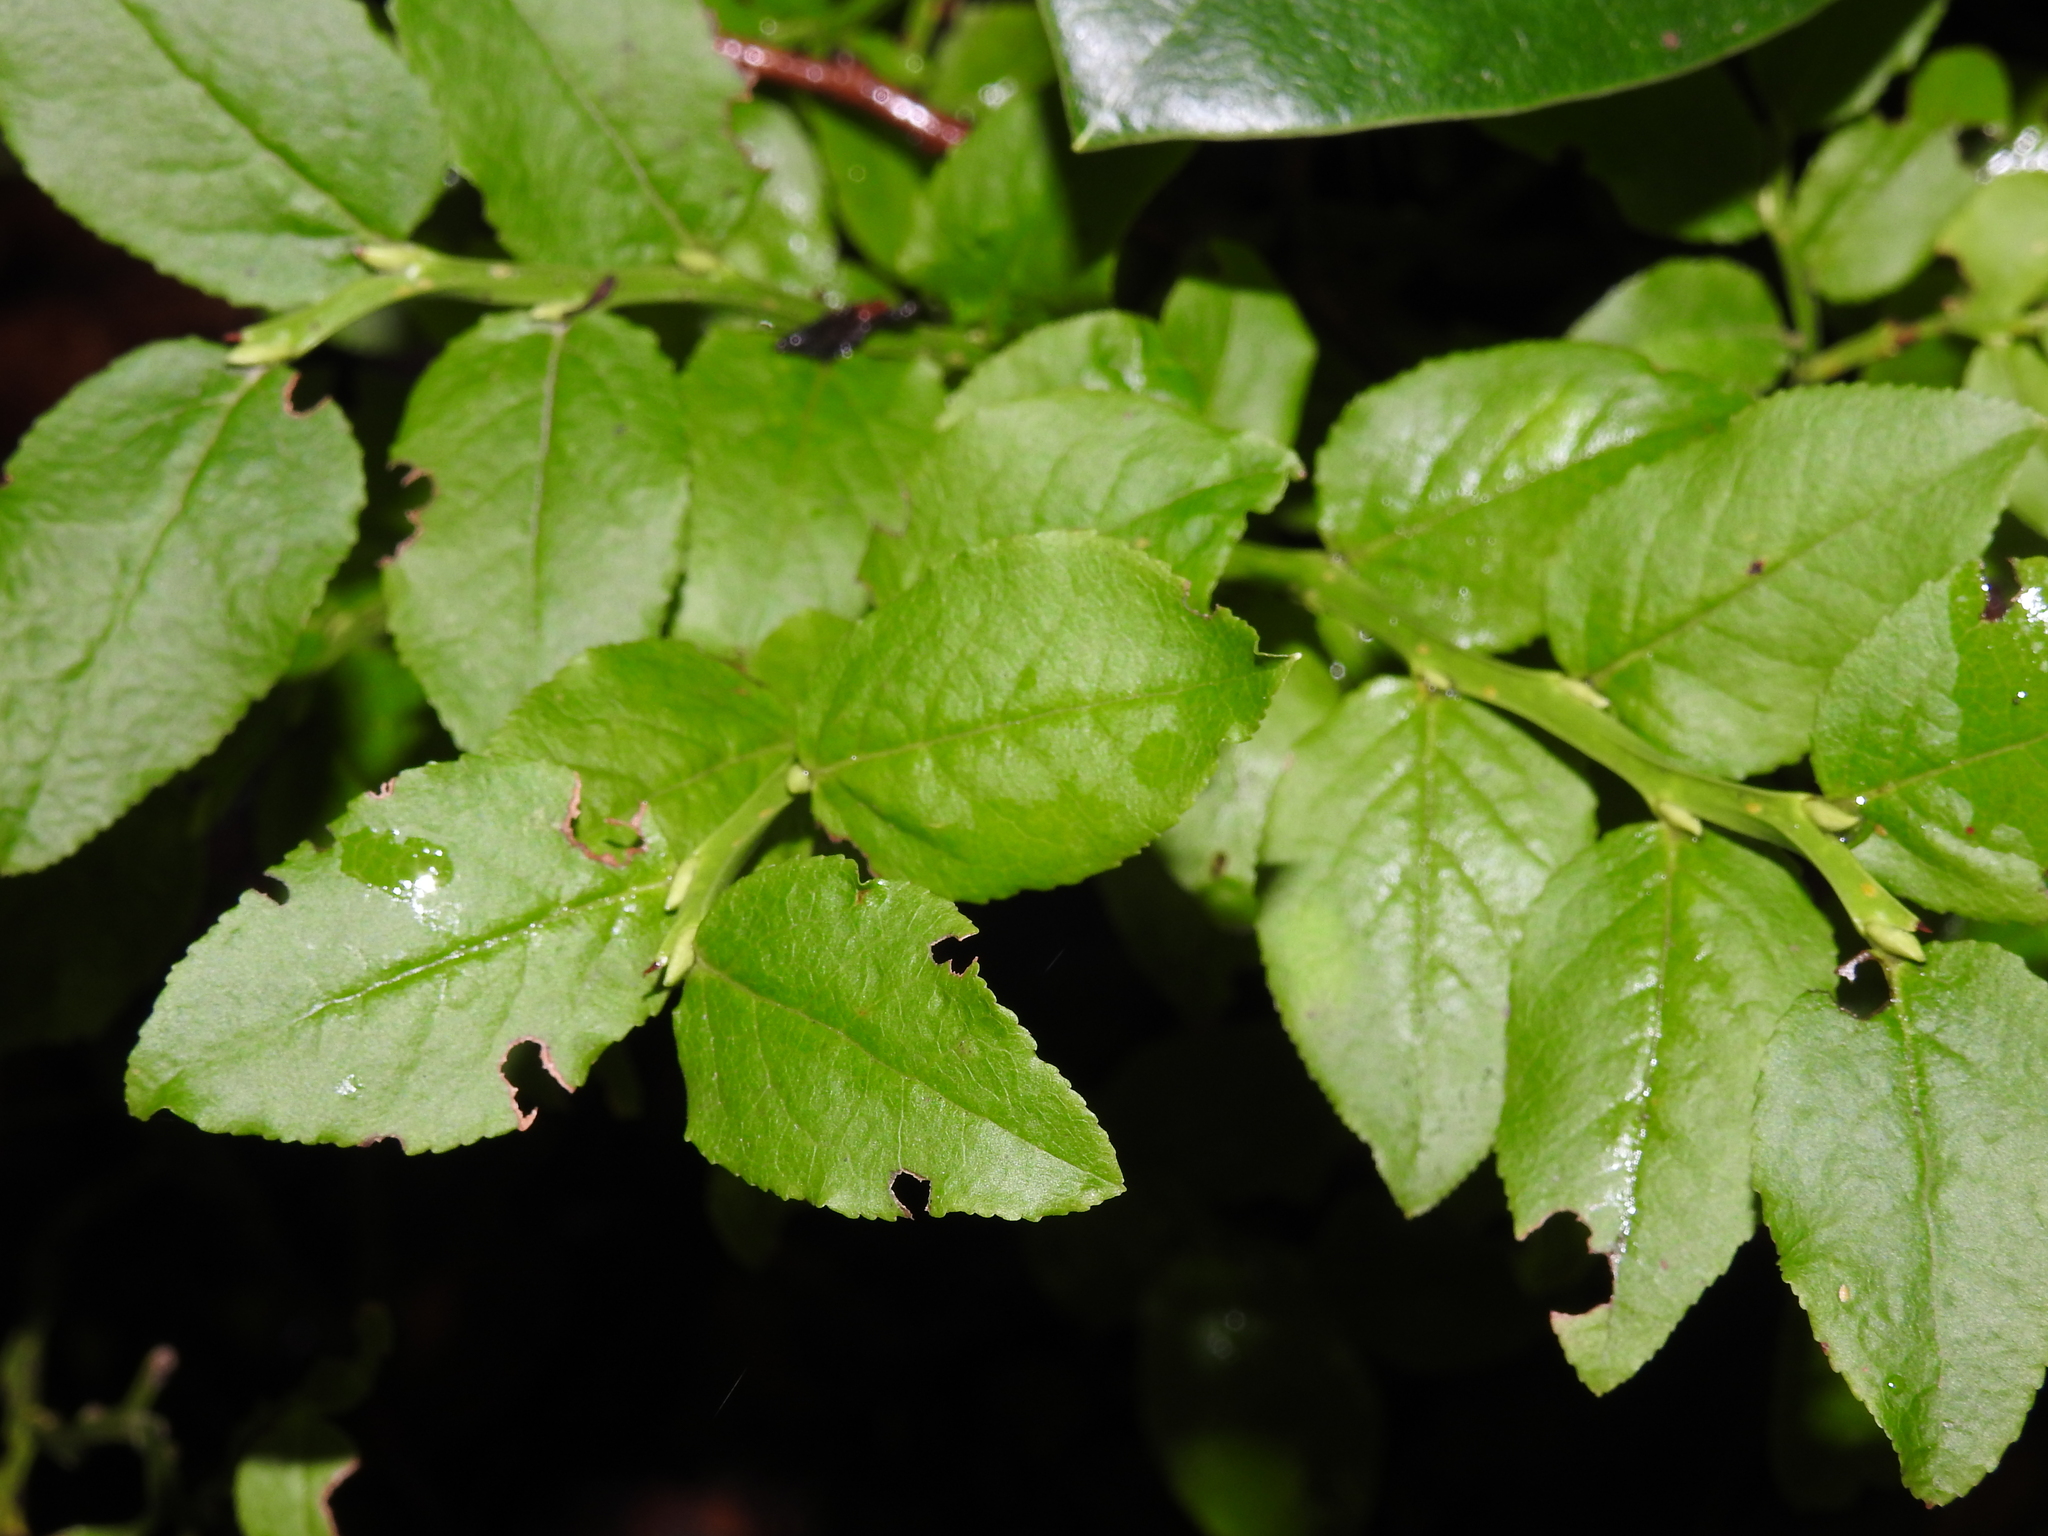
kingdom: Plantae
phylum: Tracheophyta
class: Magnoliopsida
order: Ericales
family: Ericaceae
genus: Vaccinium
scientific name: Vaccinium myrtillus
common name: Bilberry
